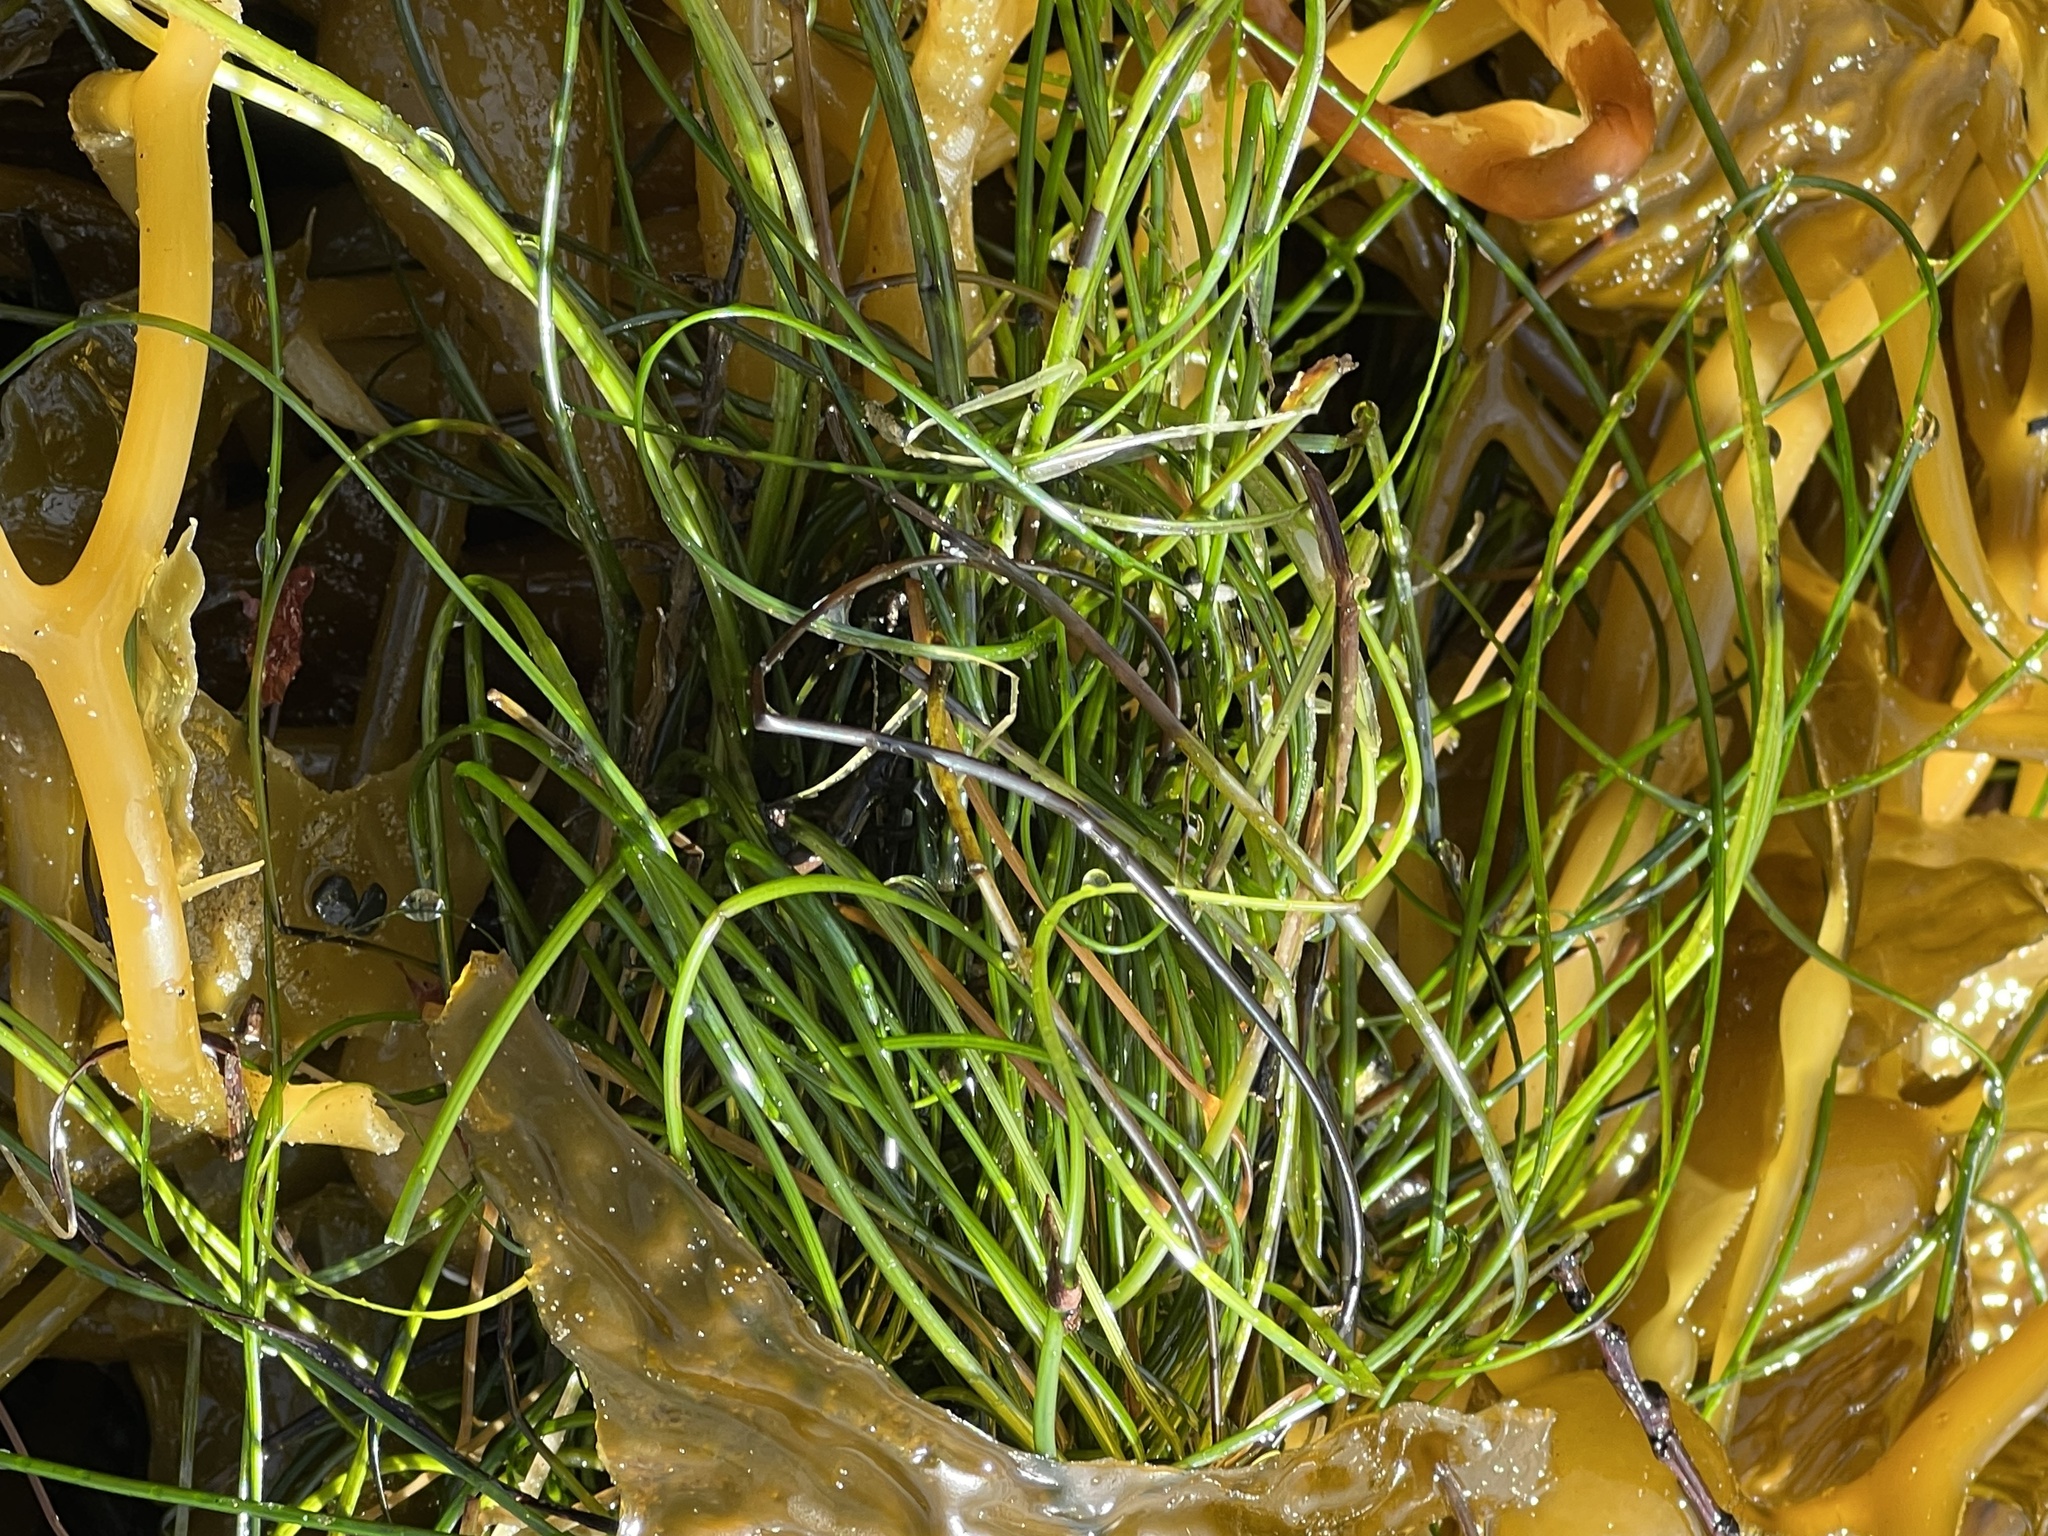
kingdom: Plantae
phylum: Tracheophyta
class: Liliopsida
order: Alismatales
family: Zosteraceae
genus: Phyllospadix
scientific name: Phyllospadix torreyi
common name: Surfgrass
